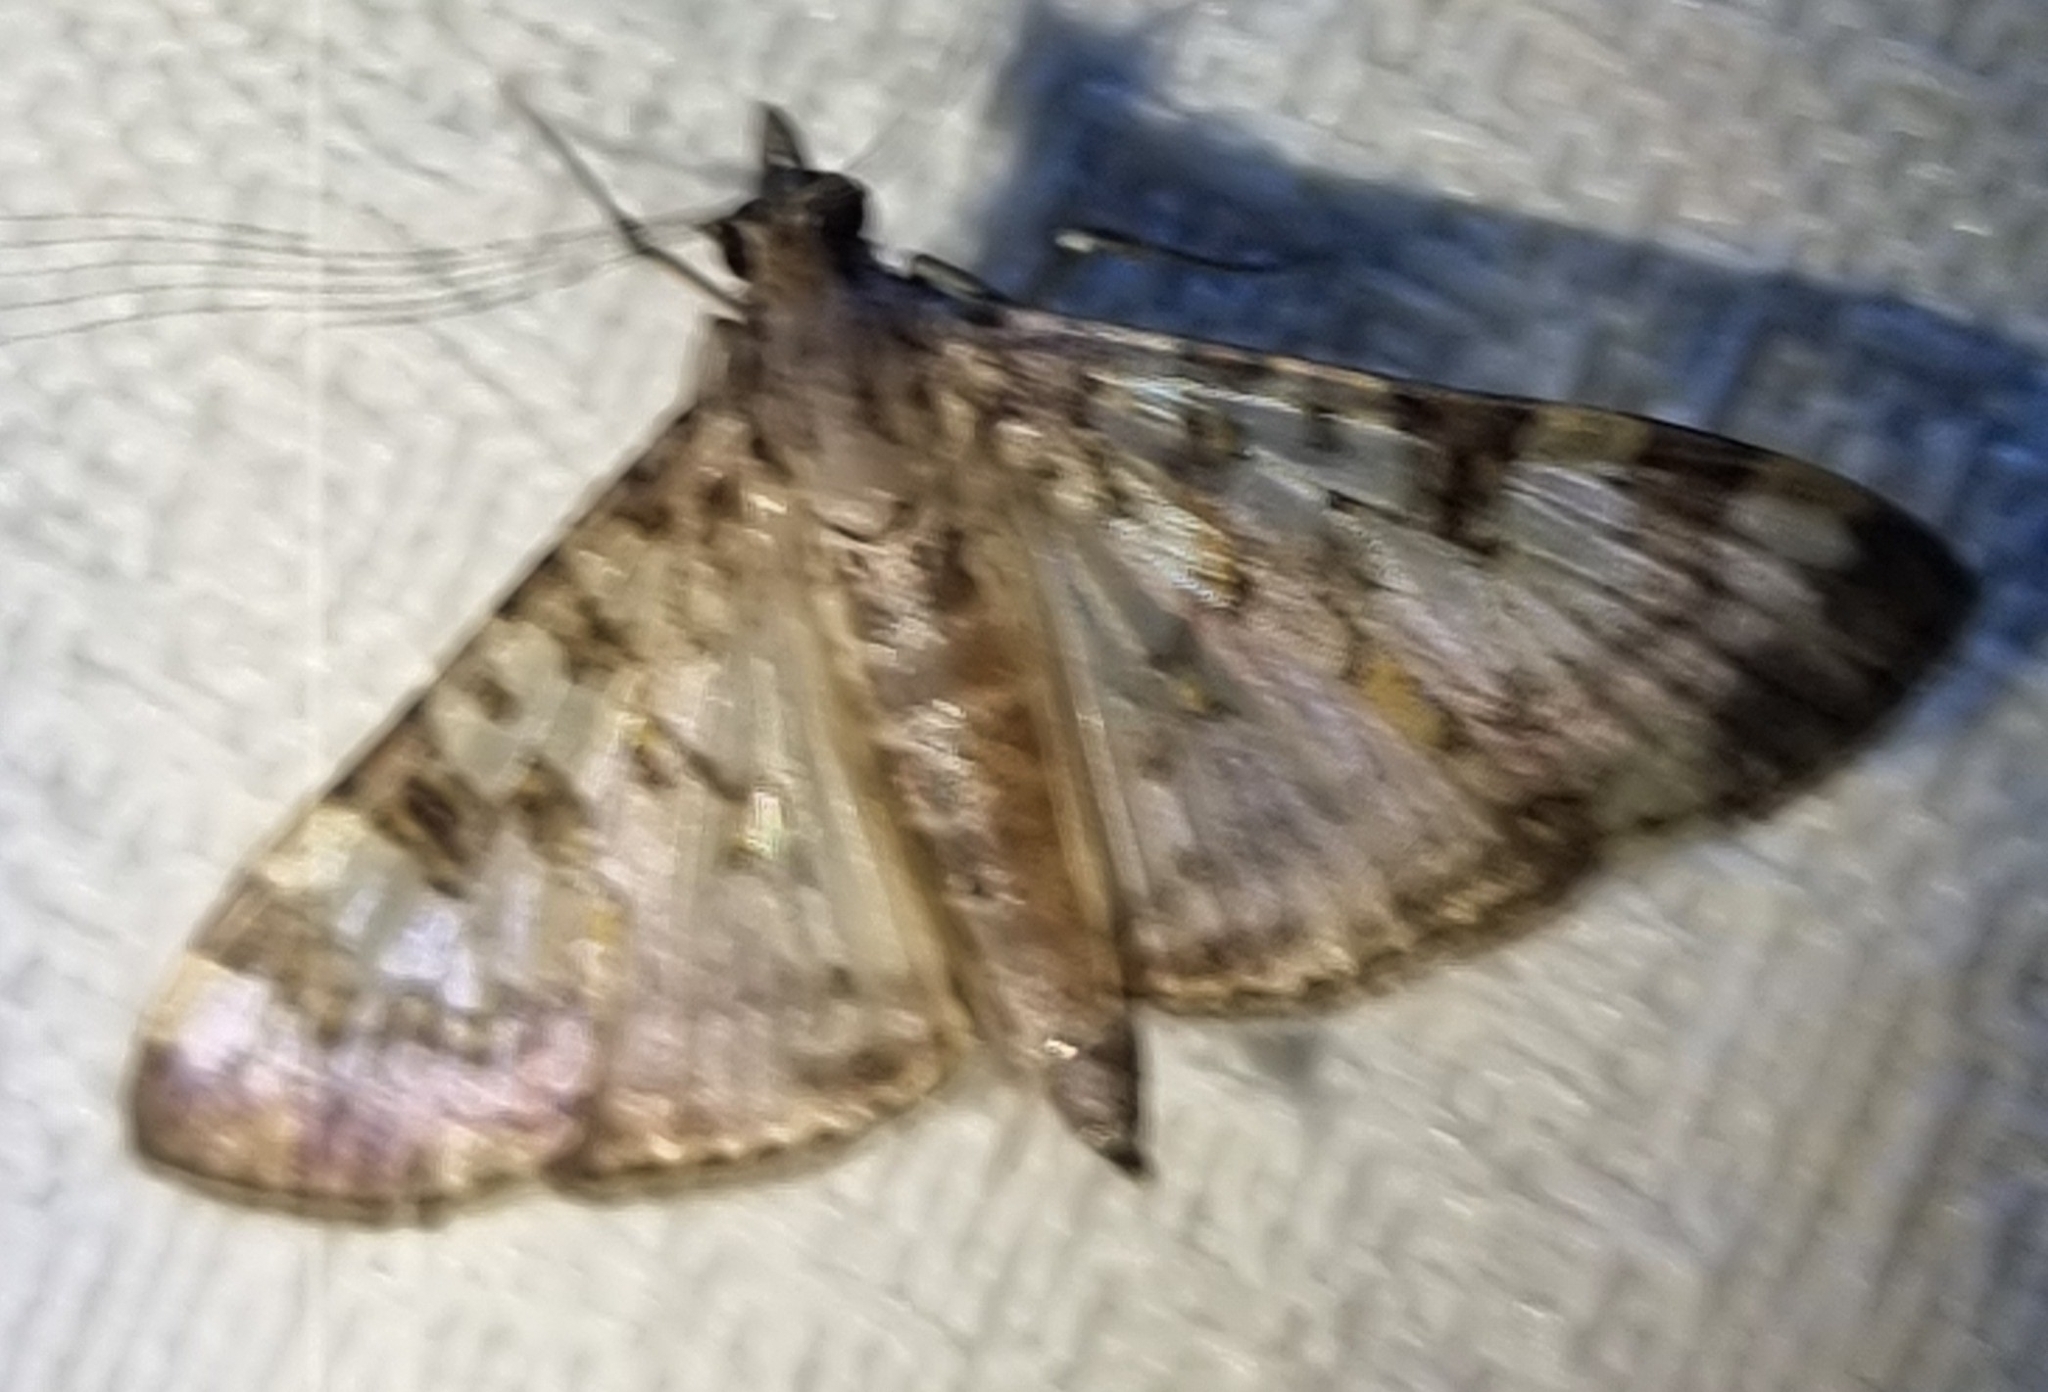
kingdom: Animalia
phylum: Arthropoda
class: Insecta
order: Lepidoptera
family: Crambidae
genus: Dysallacta
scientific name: Dysallacta negatalis
